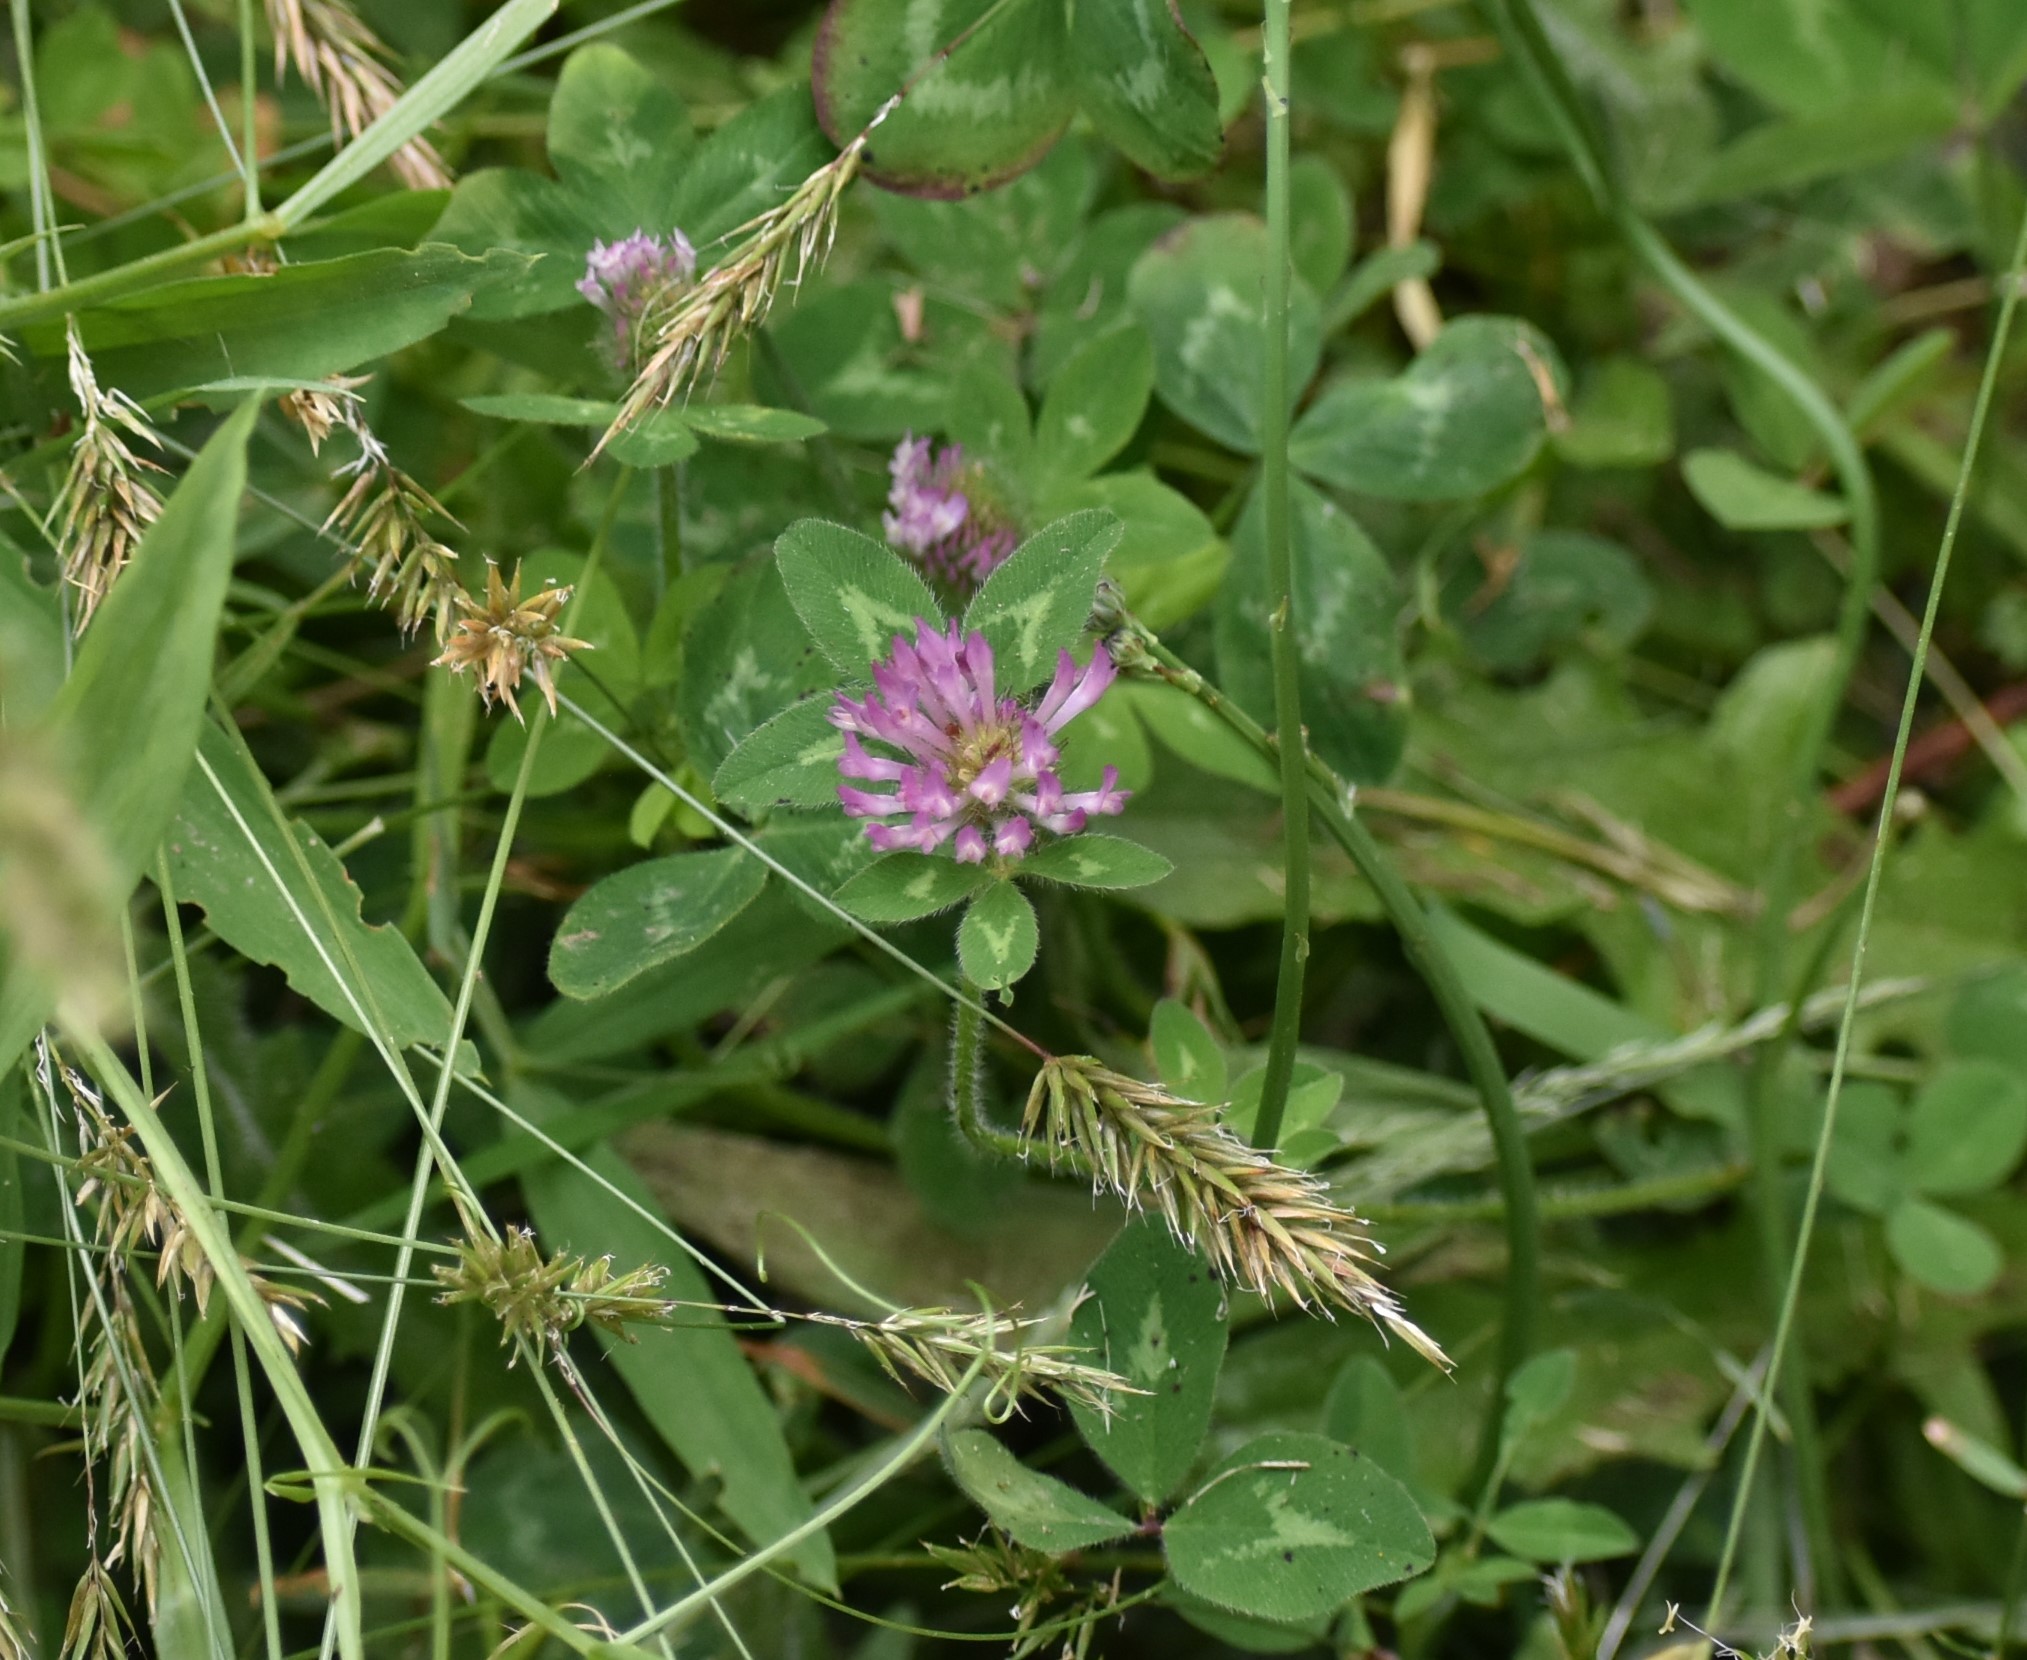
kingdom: Plantae
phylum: Tracheophyta
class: Magnoliopsida
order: Fabales
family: Fabaceae
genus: Trifolium
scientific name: Trifolium pratense
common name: Red clover
